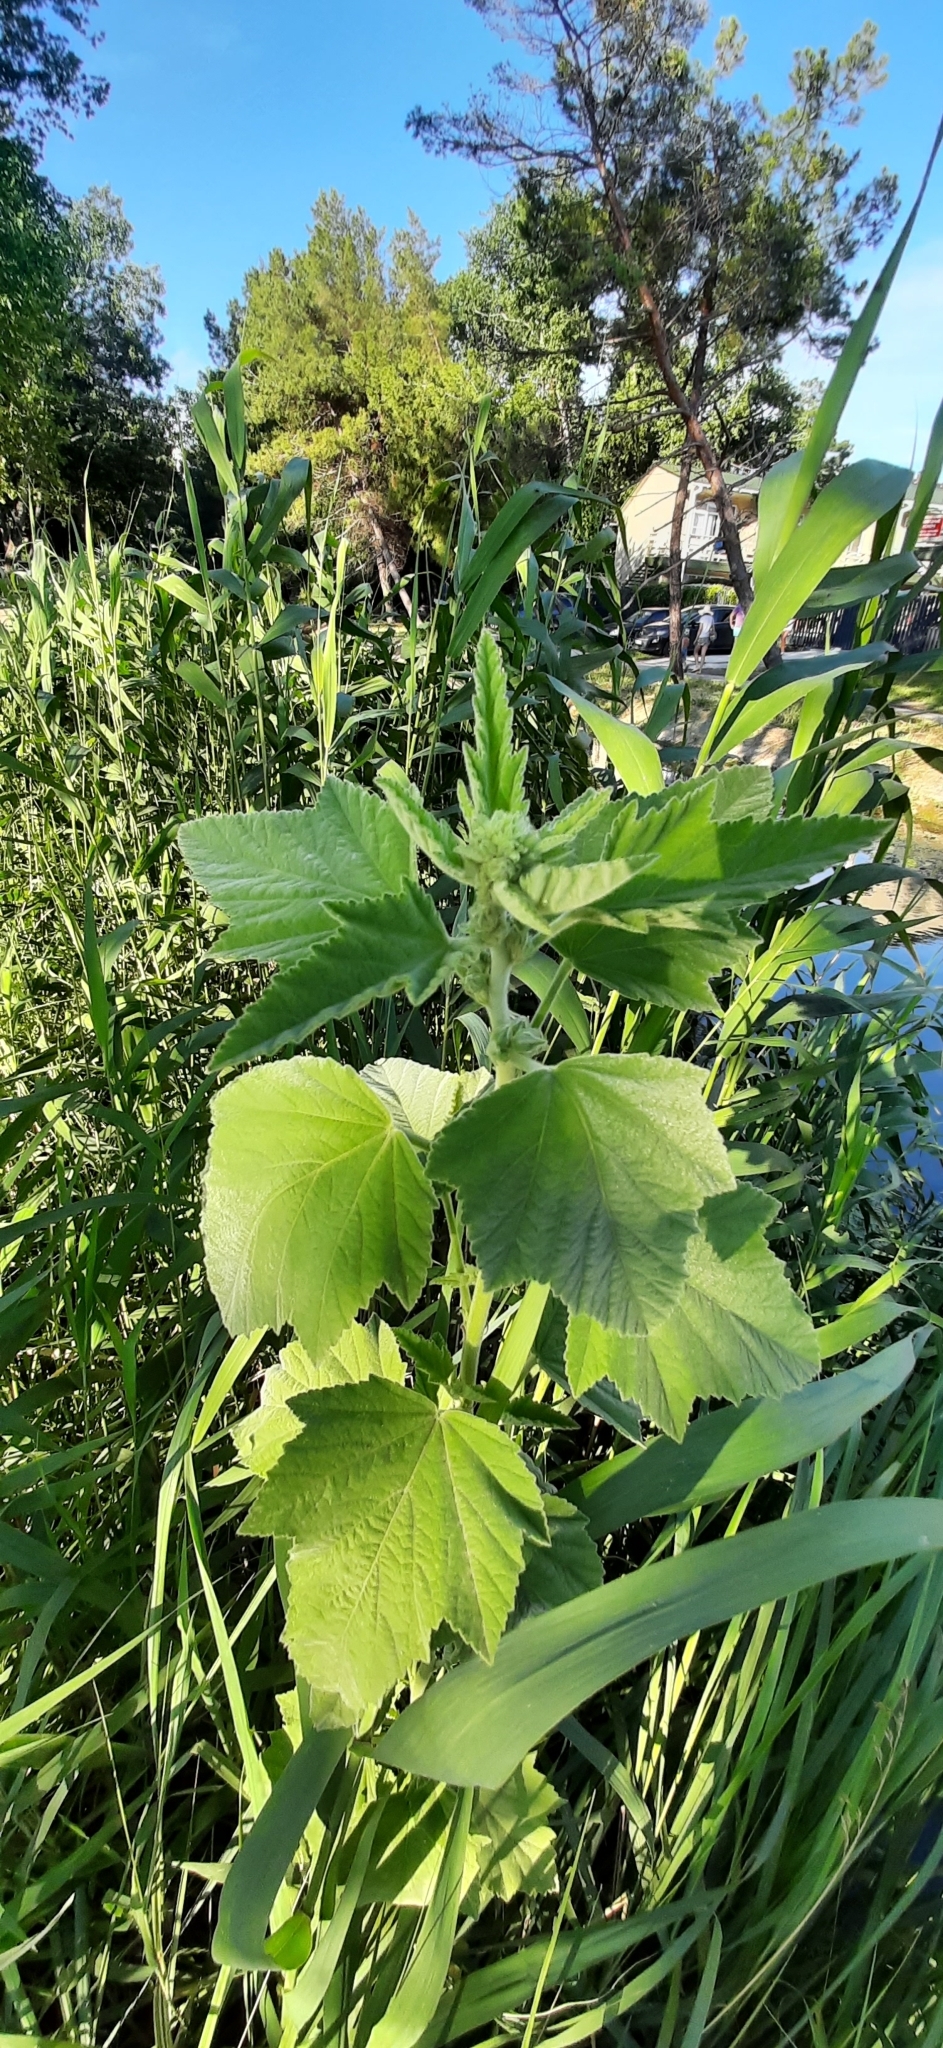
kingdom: Plantae
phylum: Tracheophyta
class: Magnoliopsida
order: Malvales
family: Malvaceae
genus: Althaea
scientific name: Althaea officinalis
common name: Marsh-mallow
